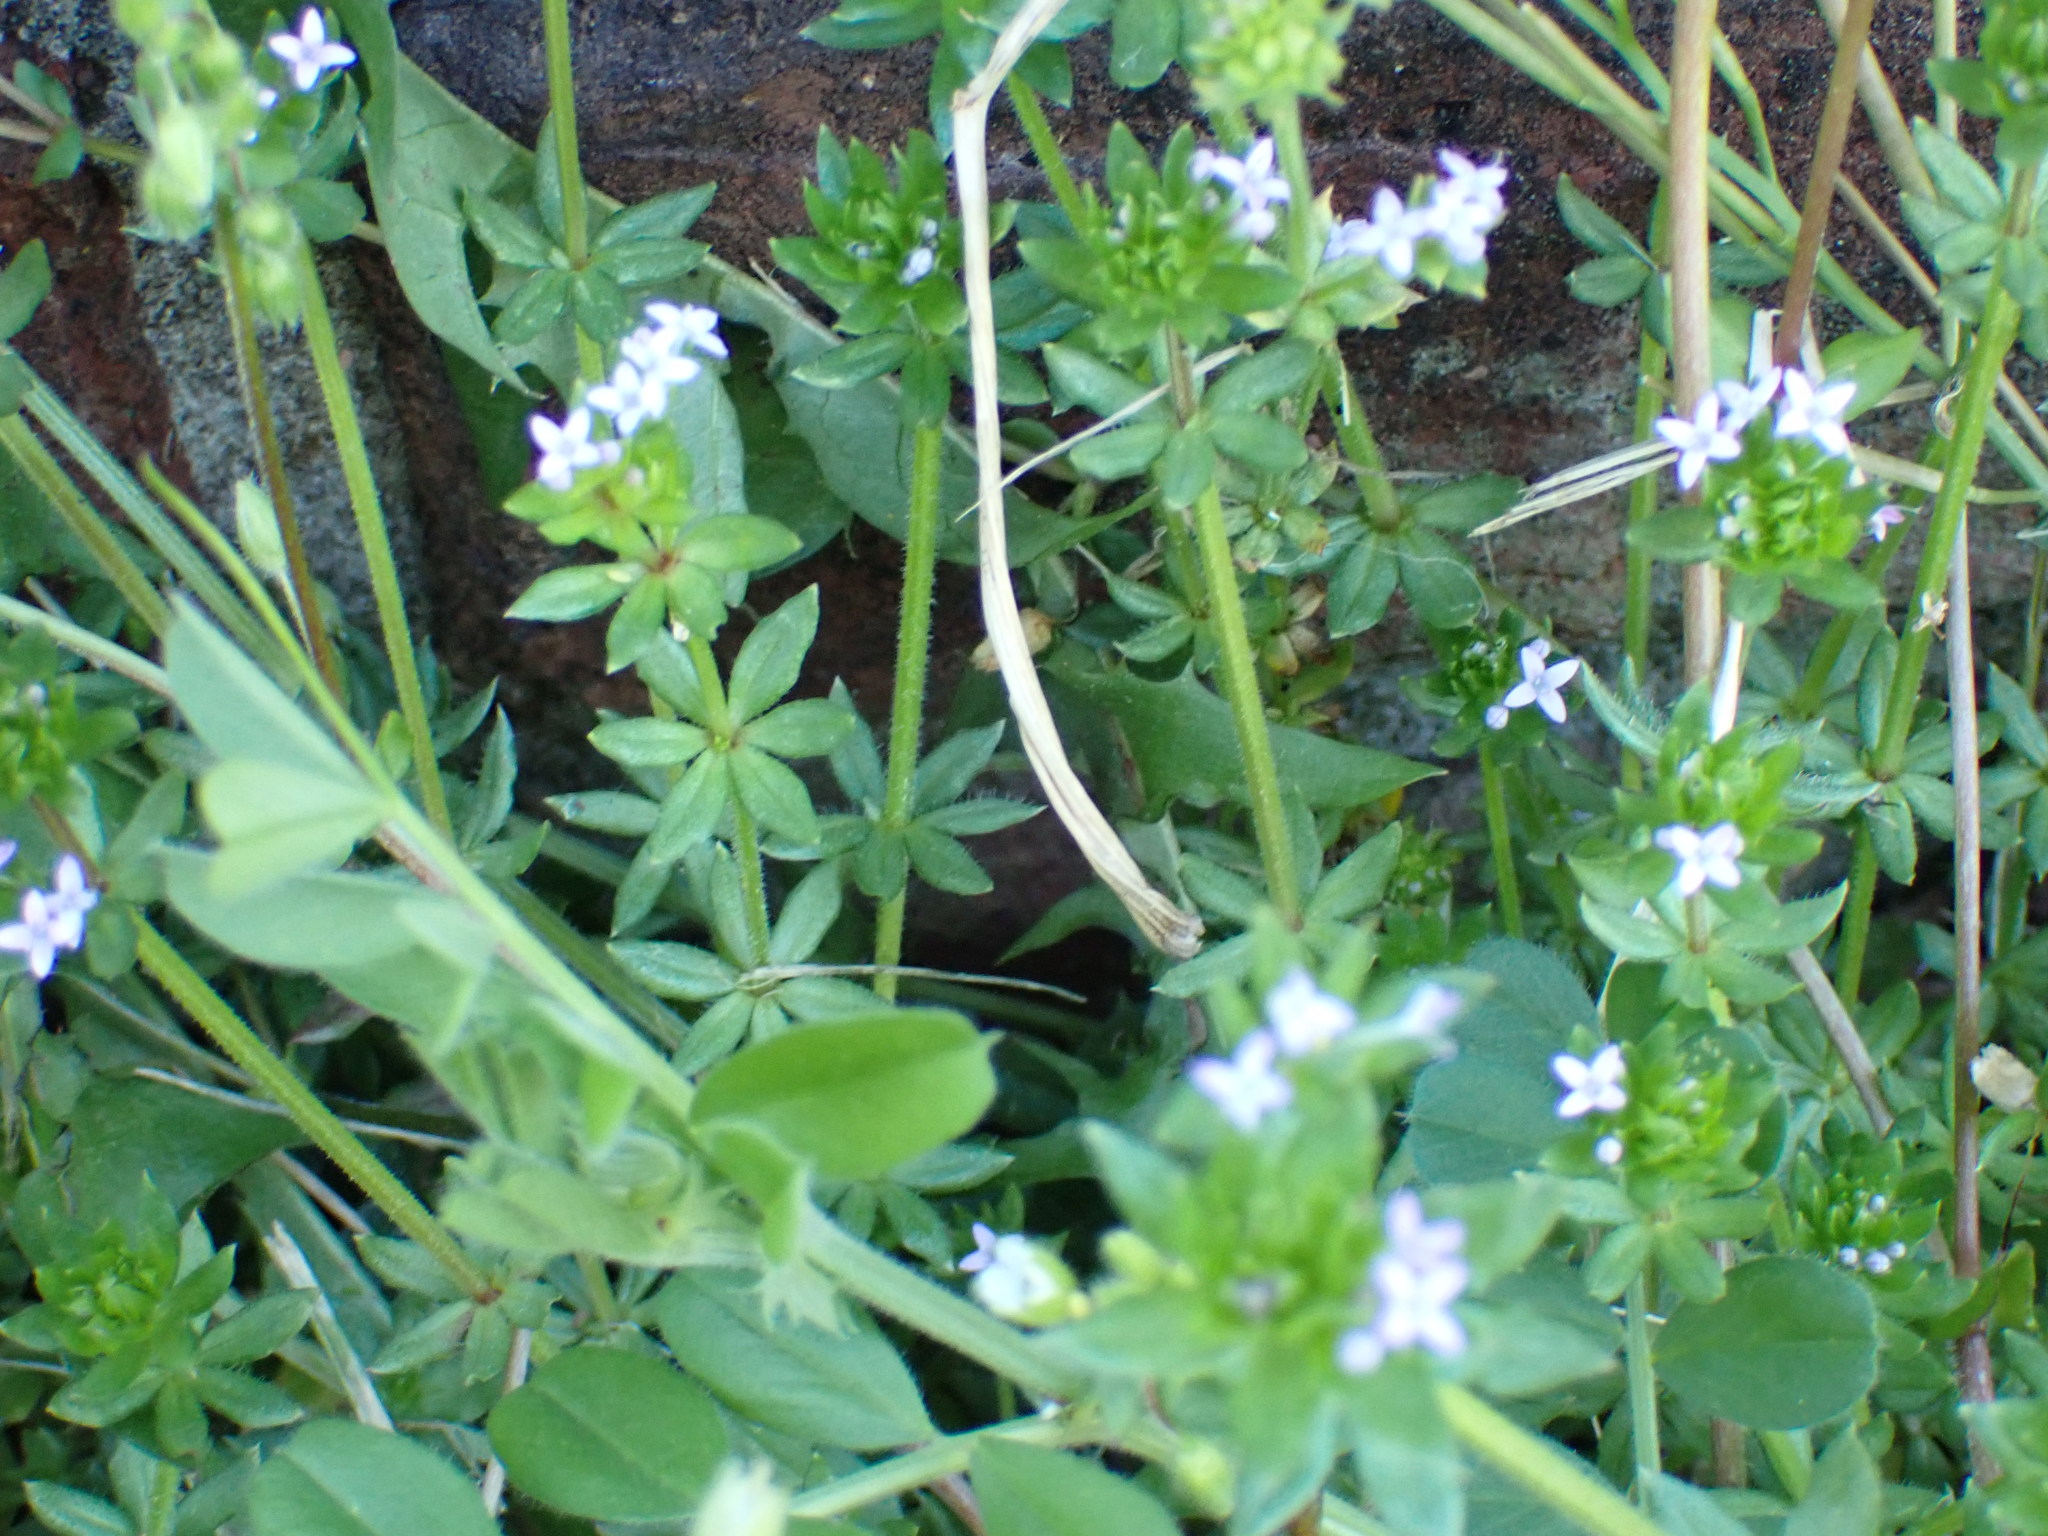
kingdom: Plantae
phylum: Tracheophyta
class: Magnoliopsida
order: Gentianales
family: Rubiaceae
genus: Sherardia
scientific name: Sherardia arvensis
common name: Field madder
